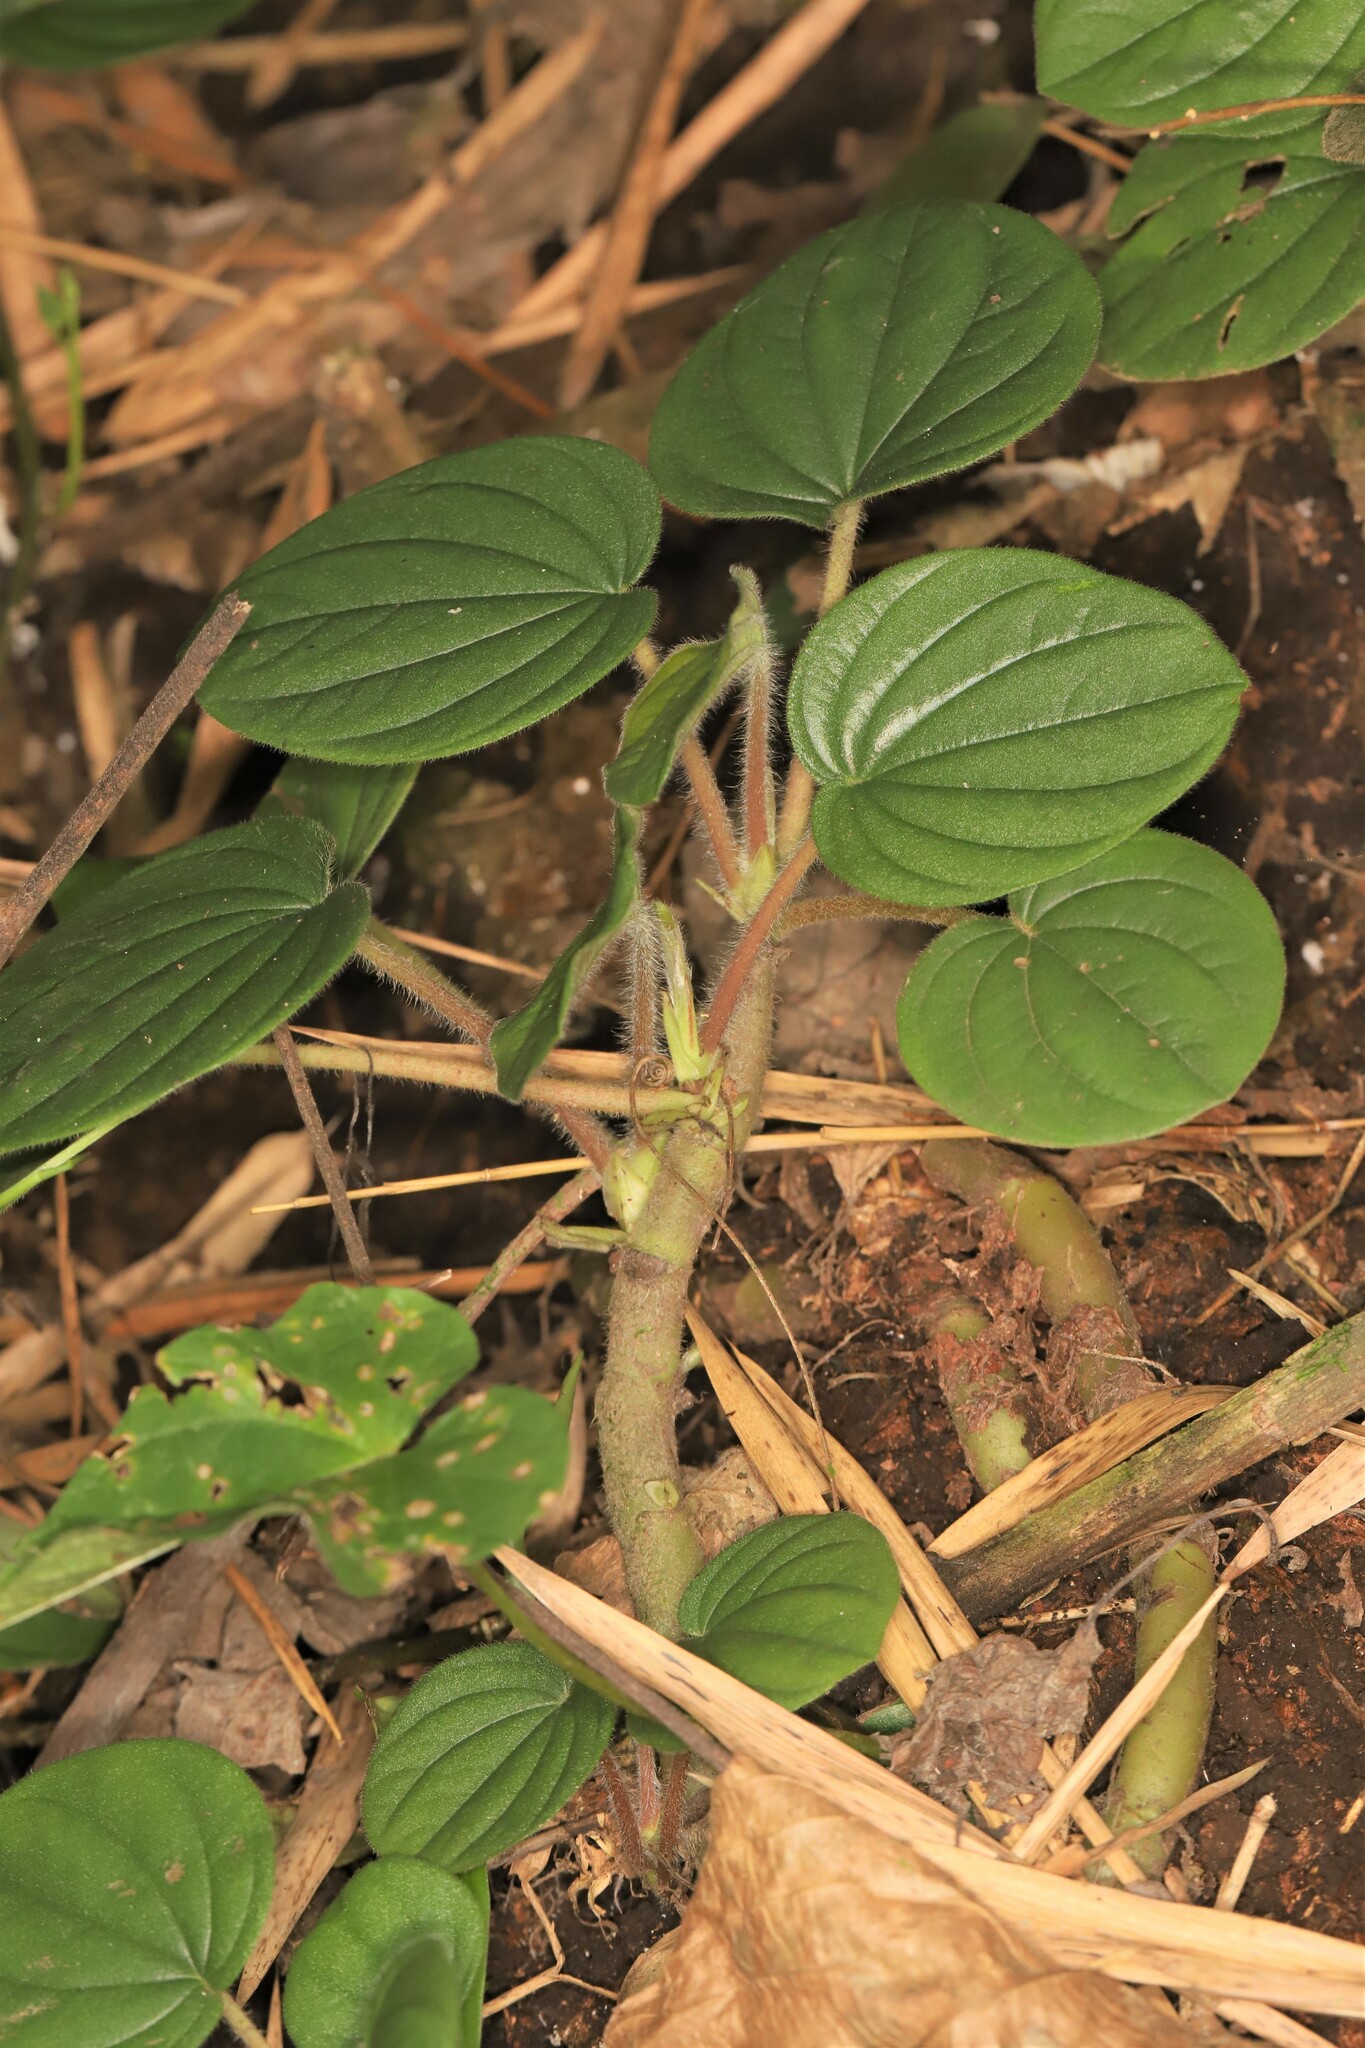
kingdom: Plantae
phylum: Tracheophyta
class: Magnoliopsida
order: Piperales
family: Piperaceae
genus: Peperomia
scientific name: Peperomia leucostachya
